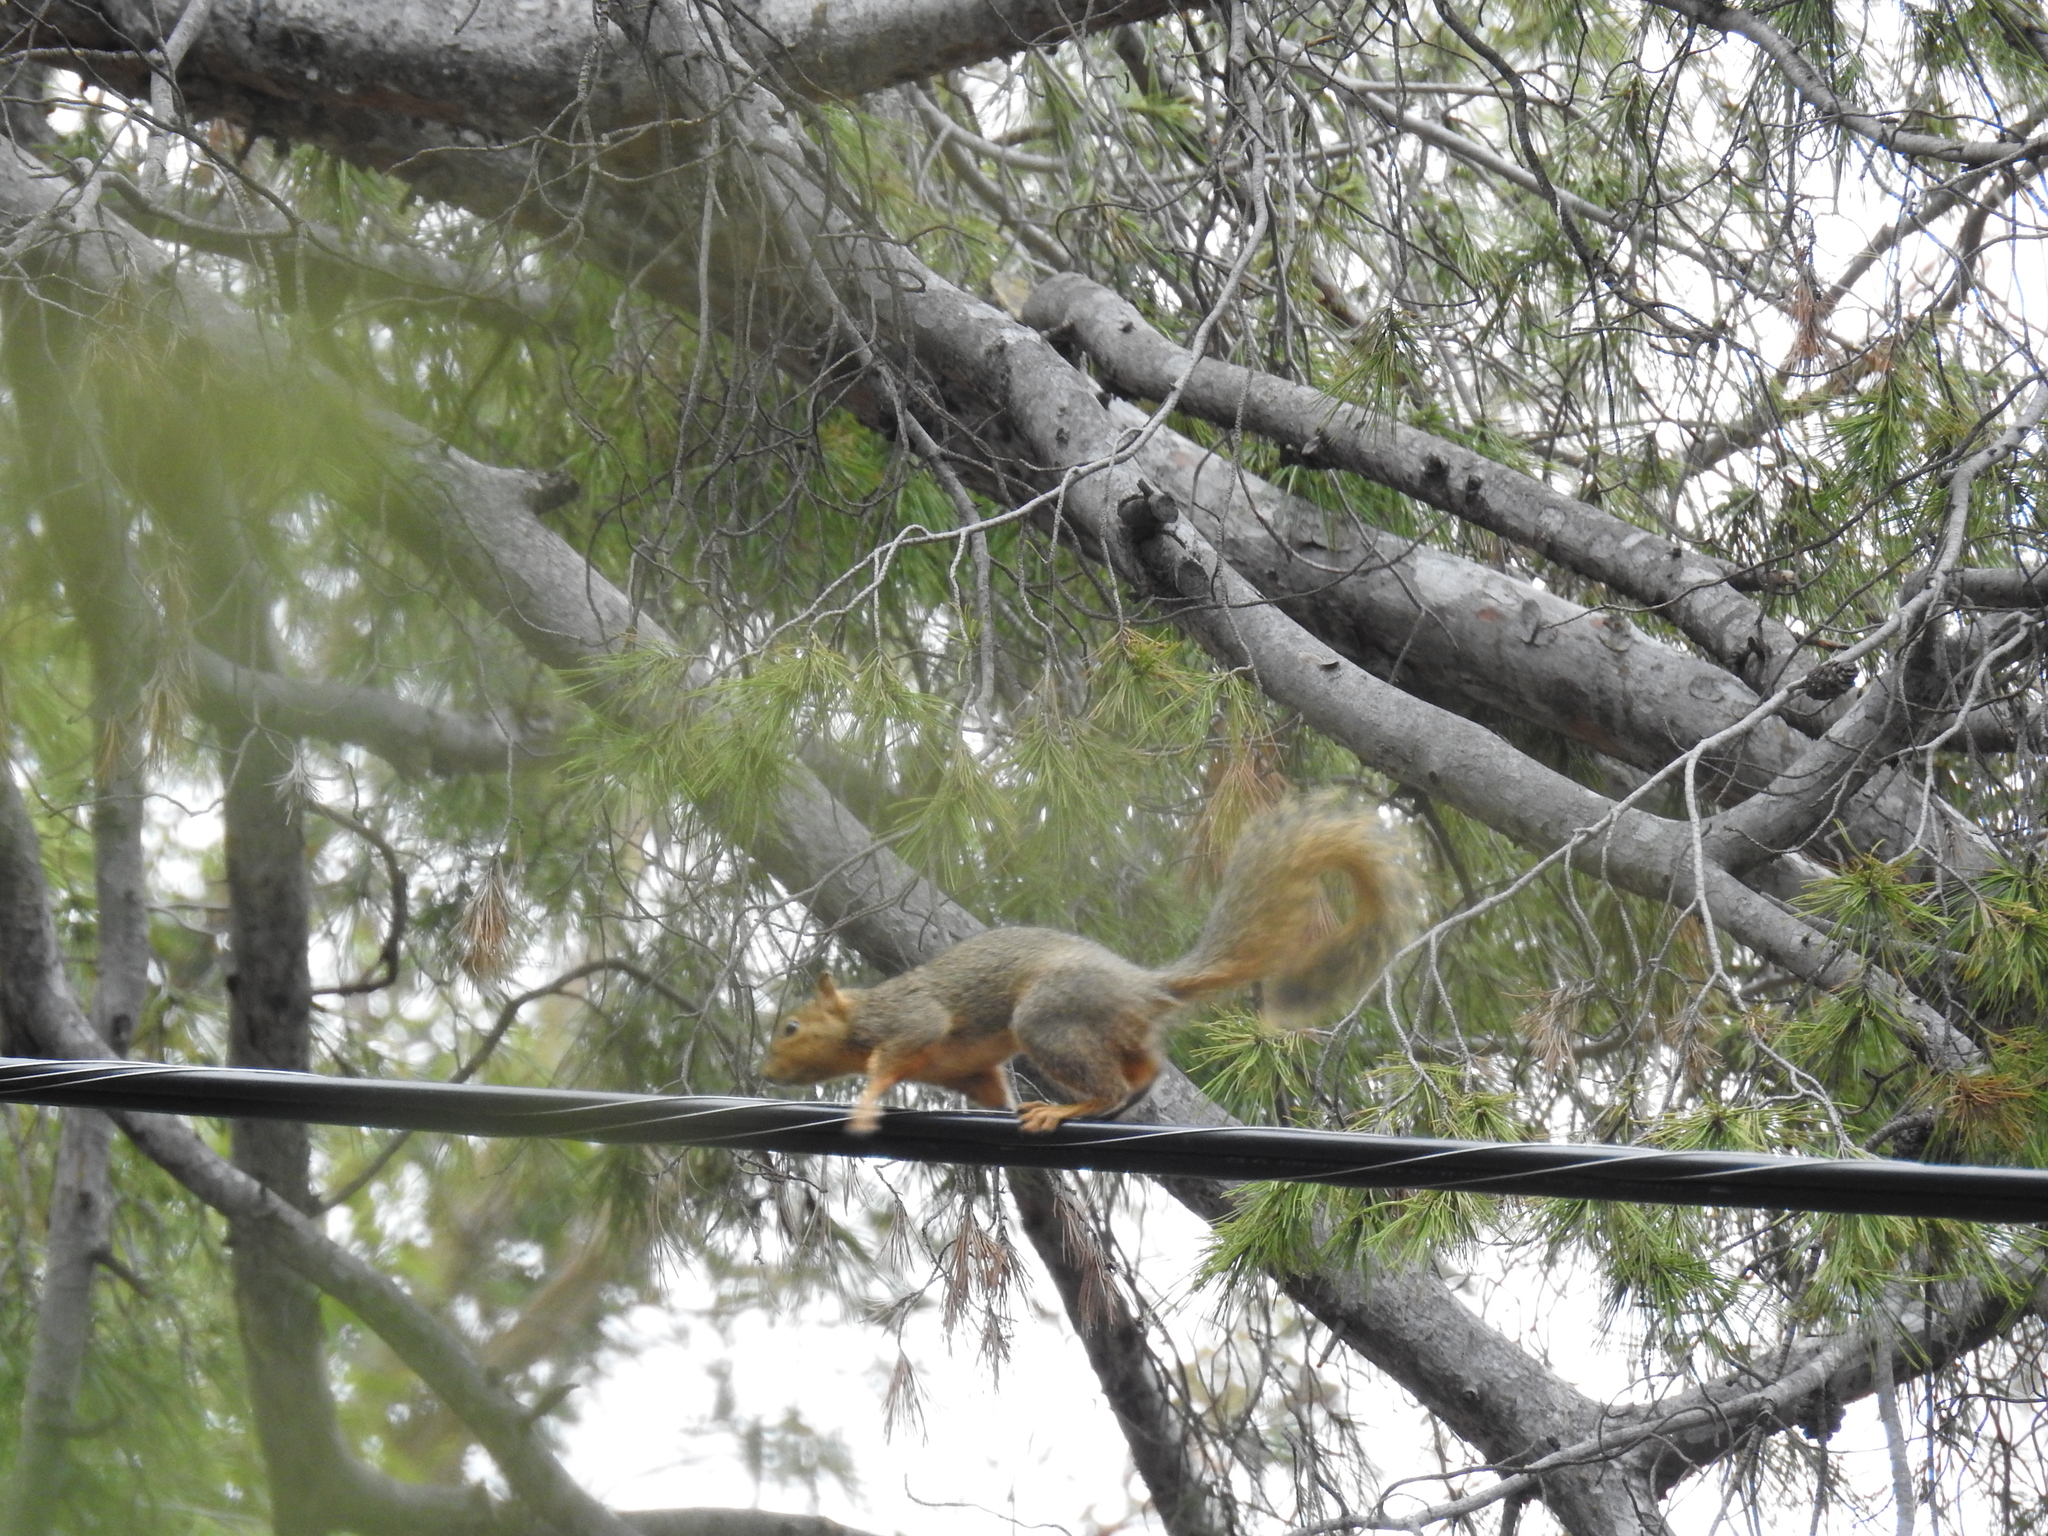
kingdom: Animalia
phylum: Chordata
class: Mammalia
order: Rodentia
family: Sciuridae
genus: Sciurus
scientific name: Sciurus niger
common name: Fox squirrel
